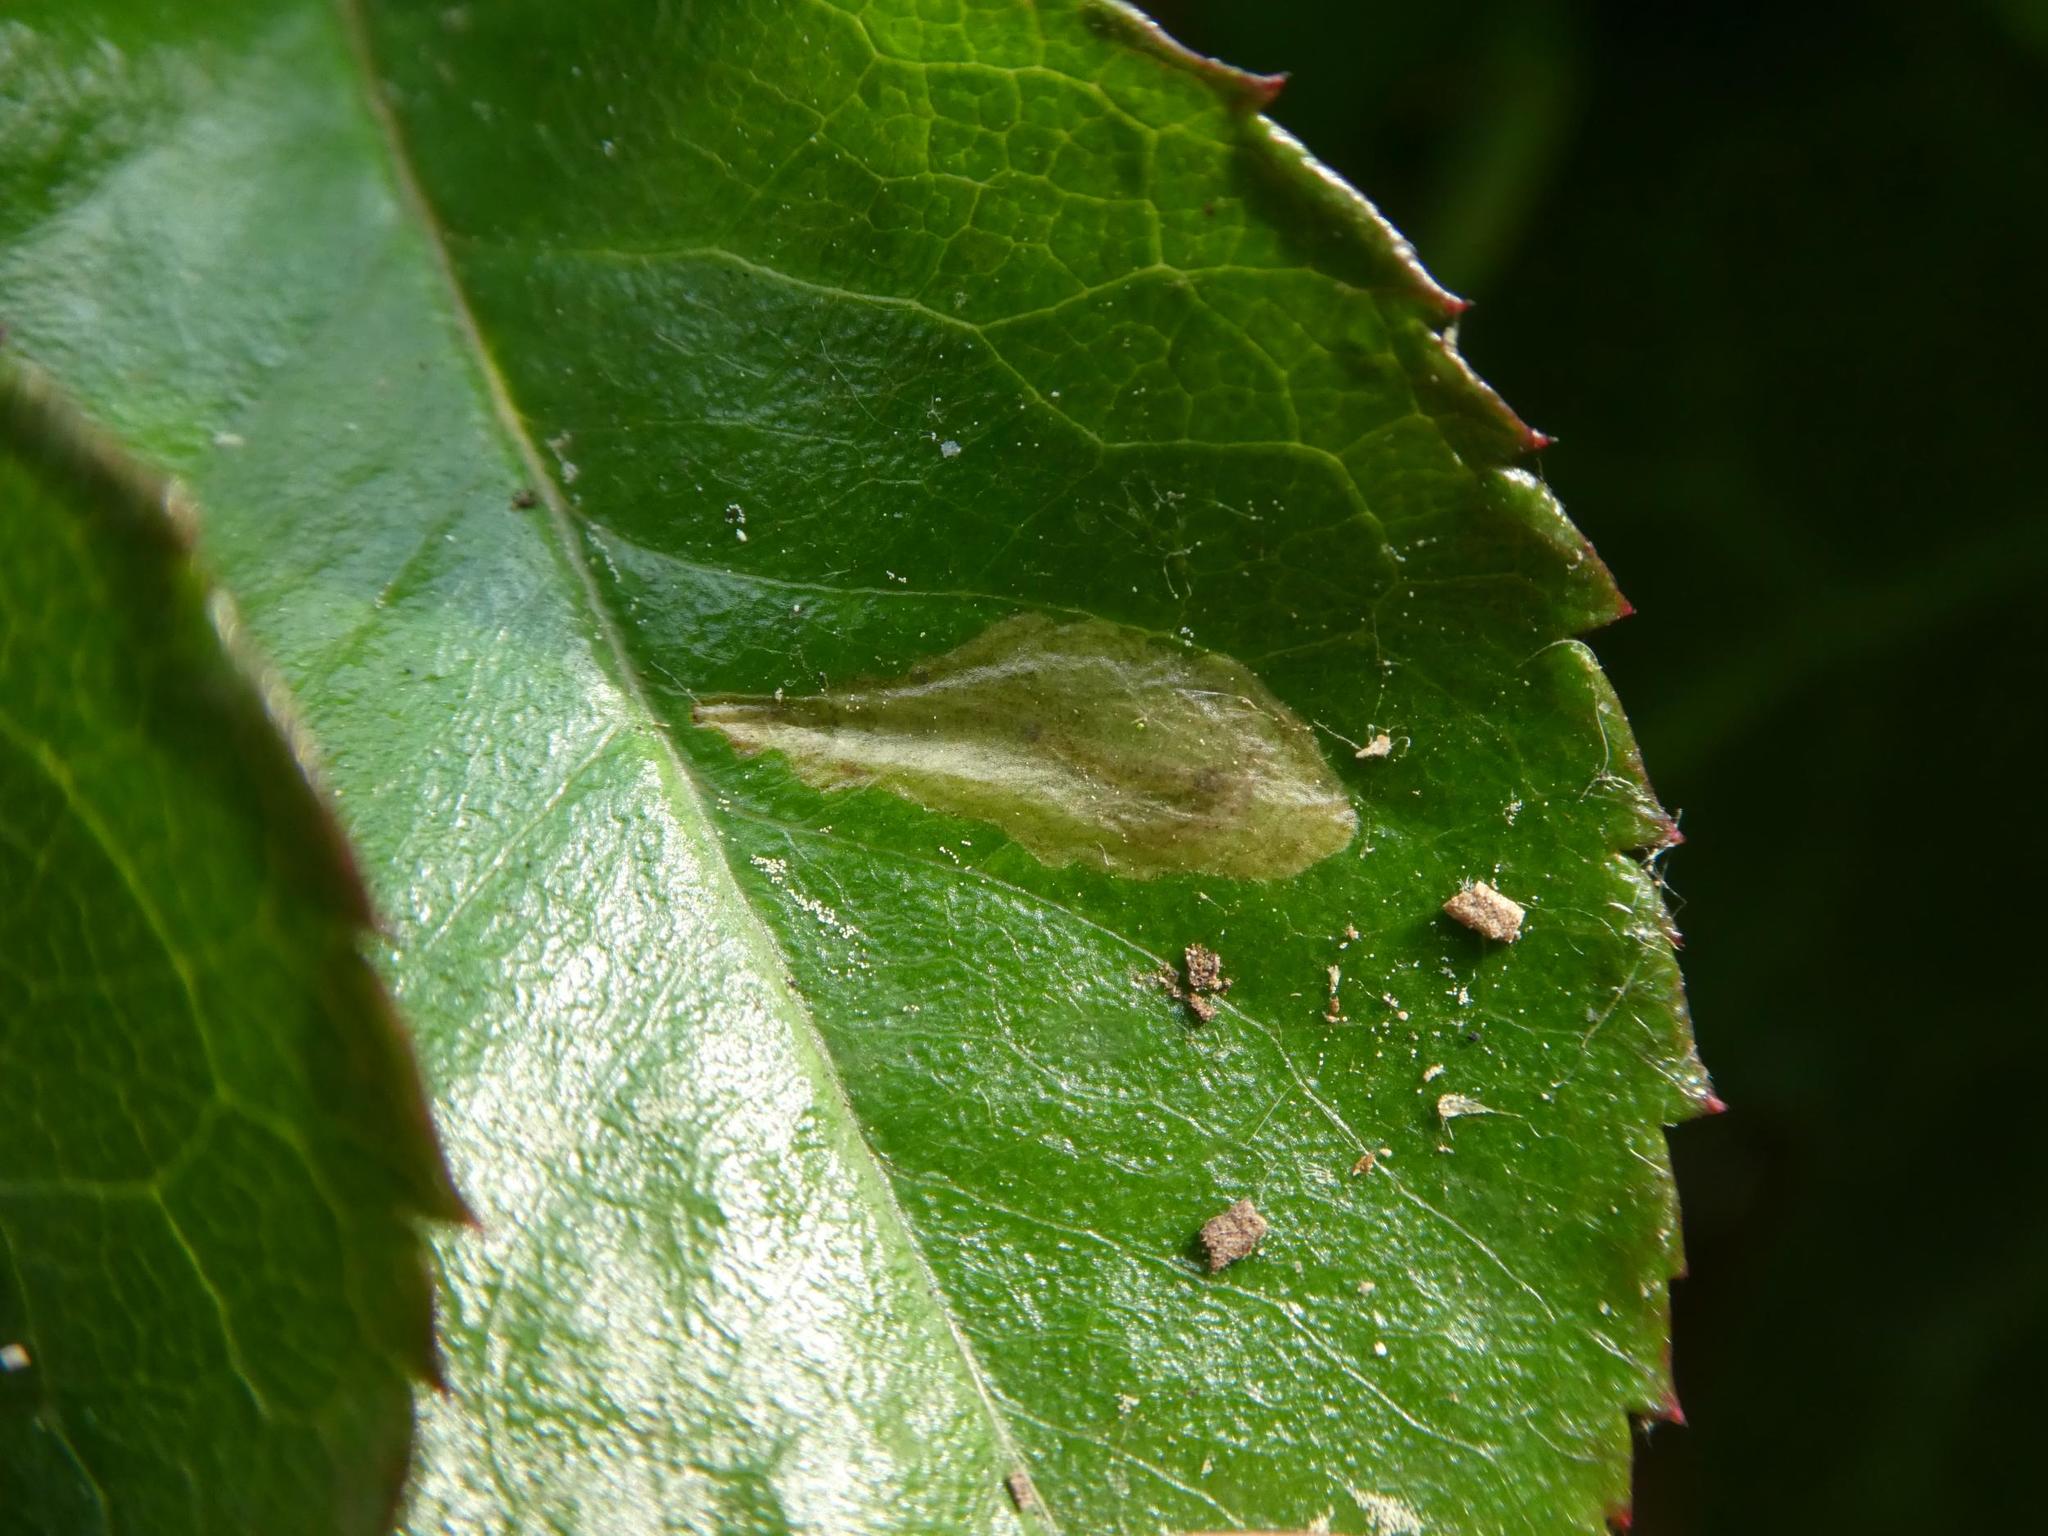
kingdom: Animalia
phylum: Arthropoda
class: Insecta
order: Lepidoptera
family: Tischeriidae
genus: Coptotriche
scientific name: Coptotriche angusticolella
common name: Rose carl
